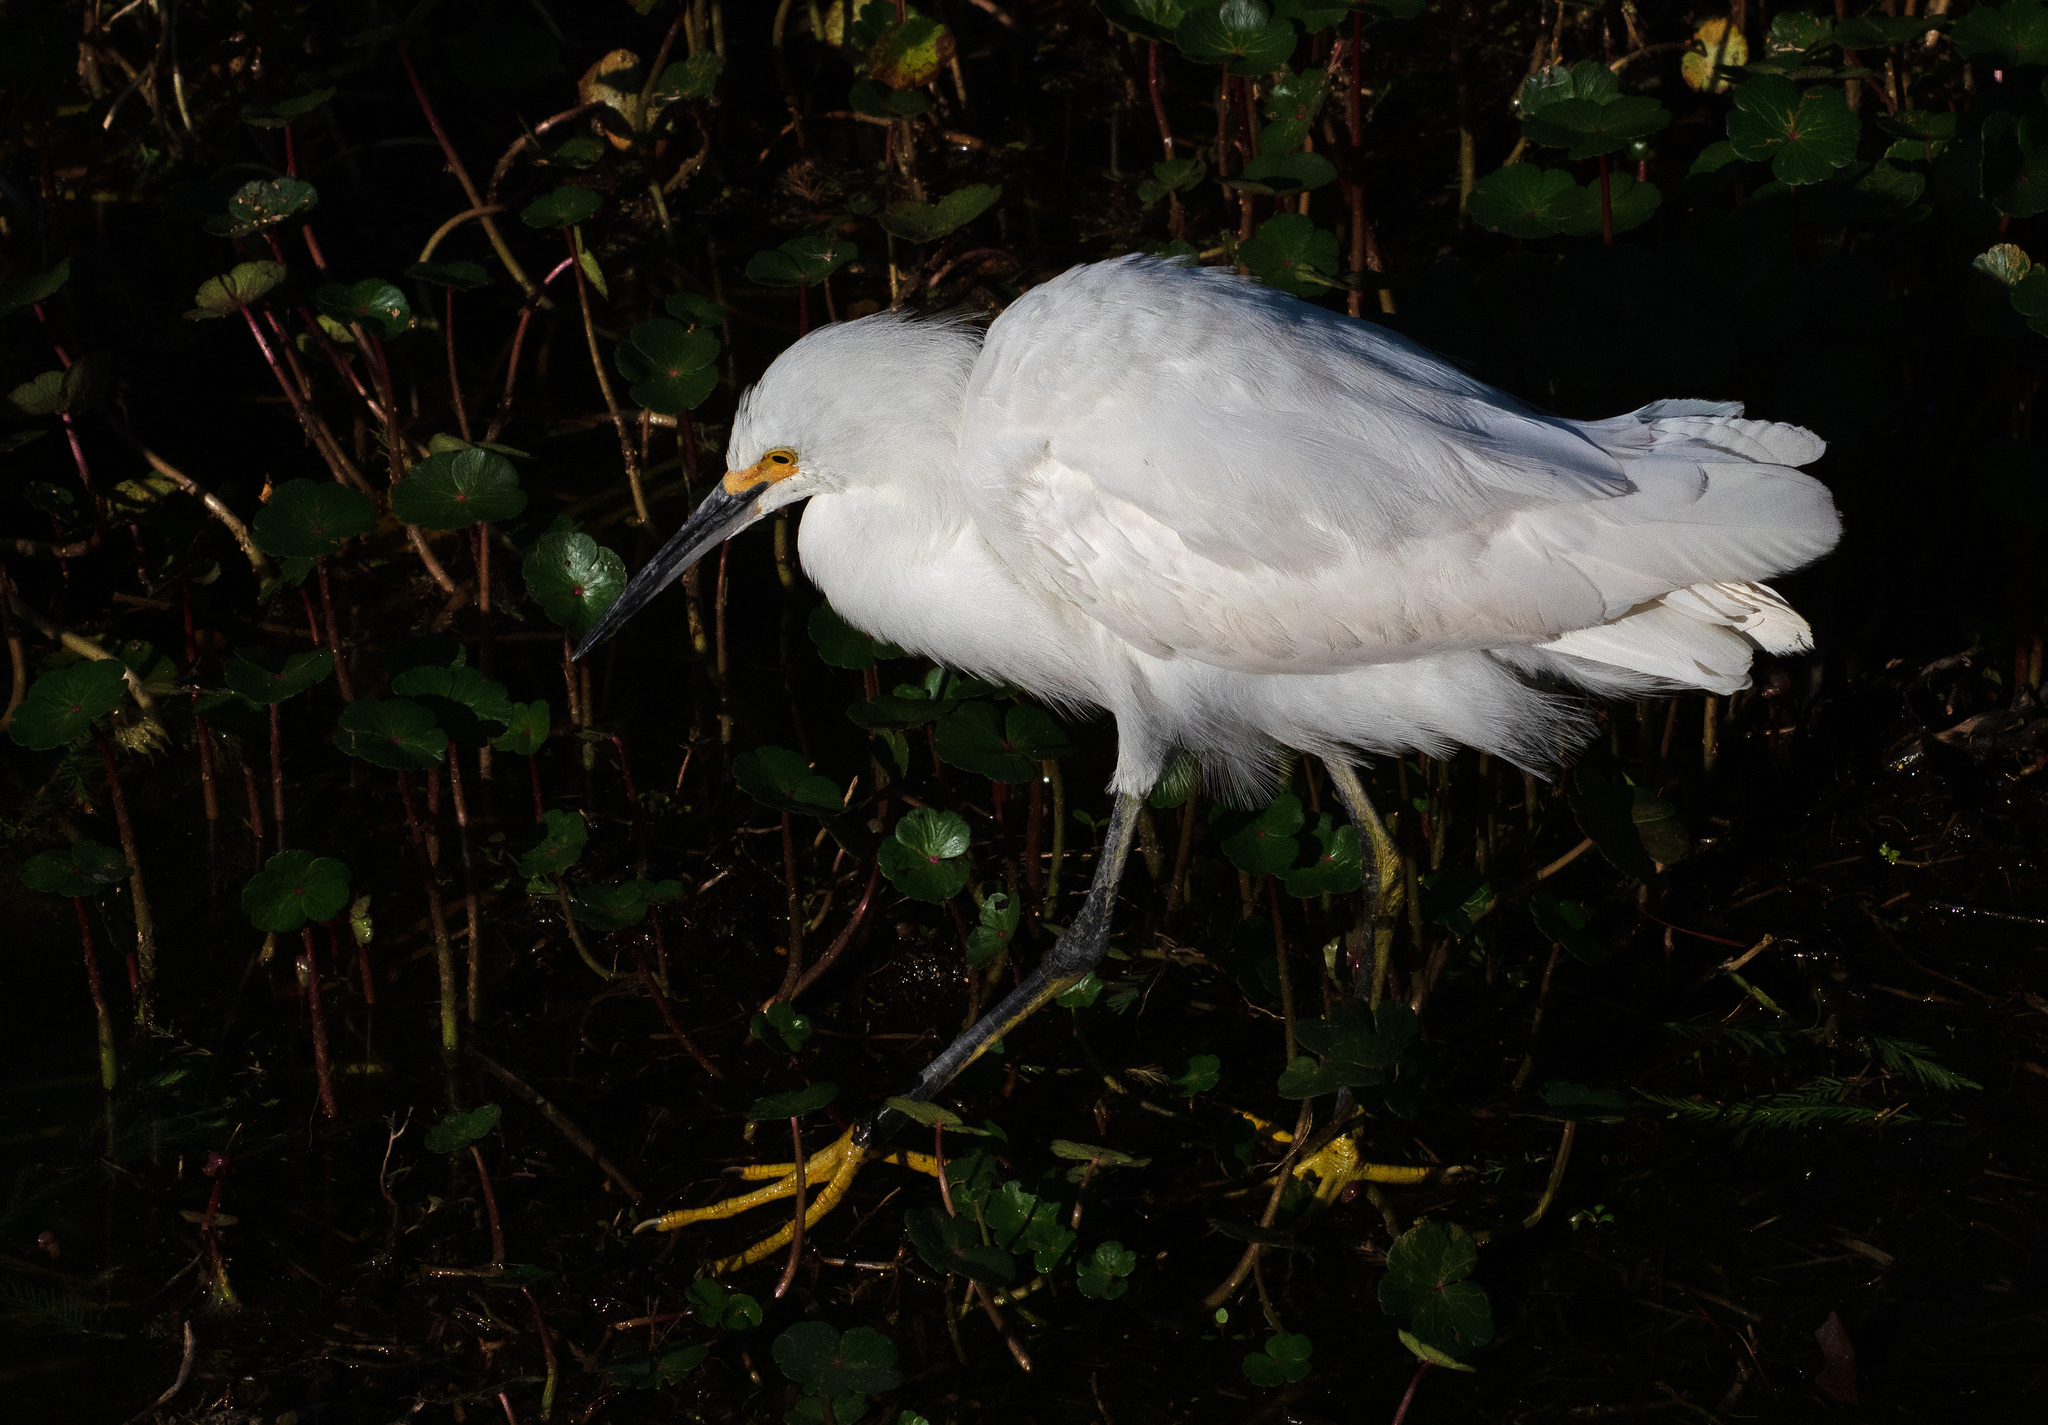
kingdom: Animalia
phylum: Chordata
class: Aves
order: Pelecaniformes
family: Ardeidae
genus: Egretta
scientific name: Egretta thula
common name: Snowy egret
